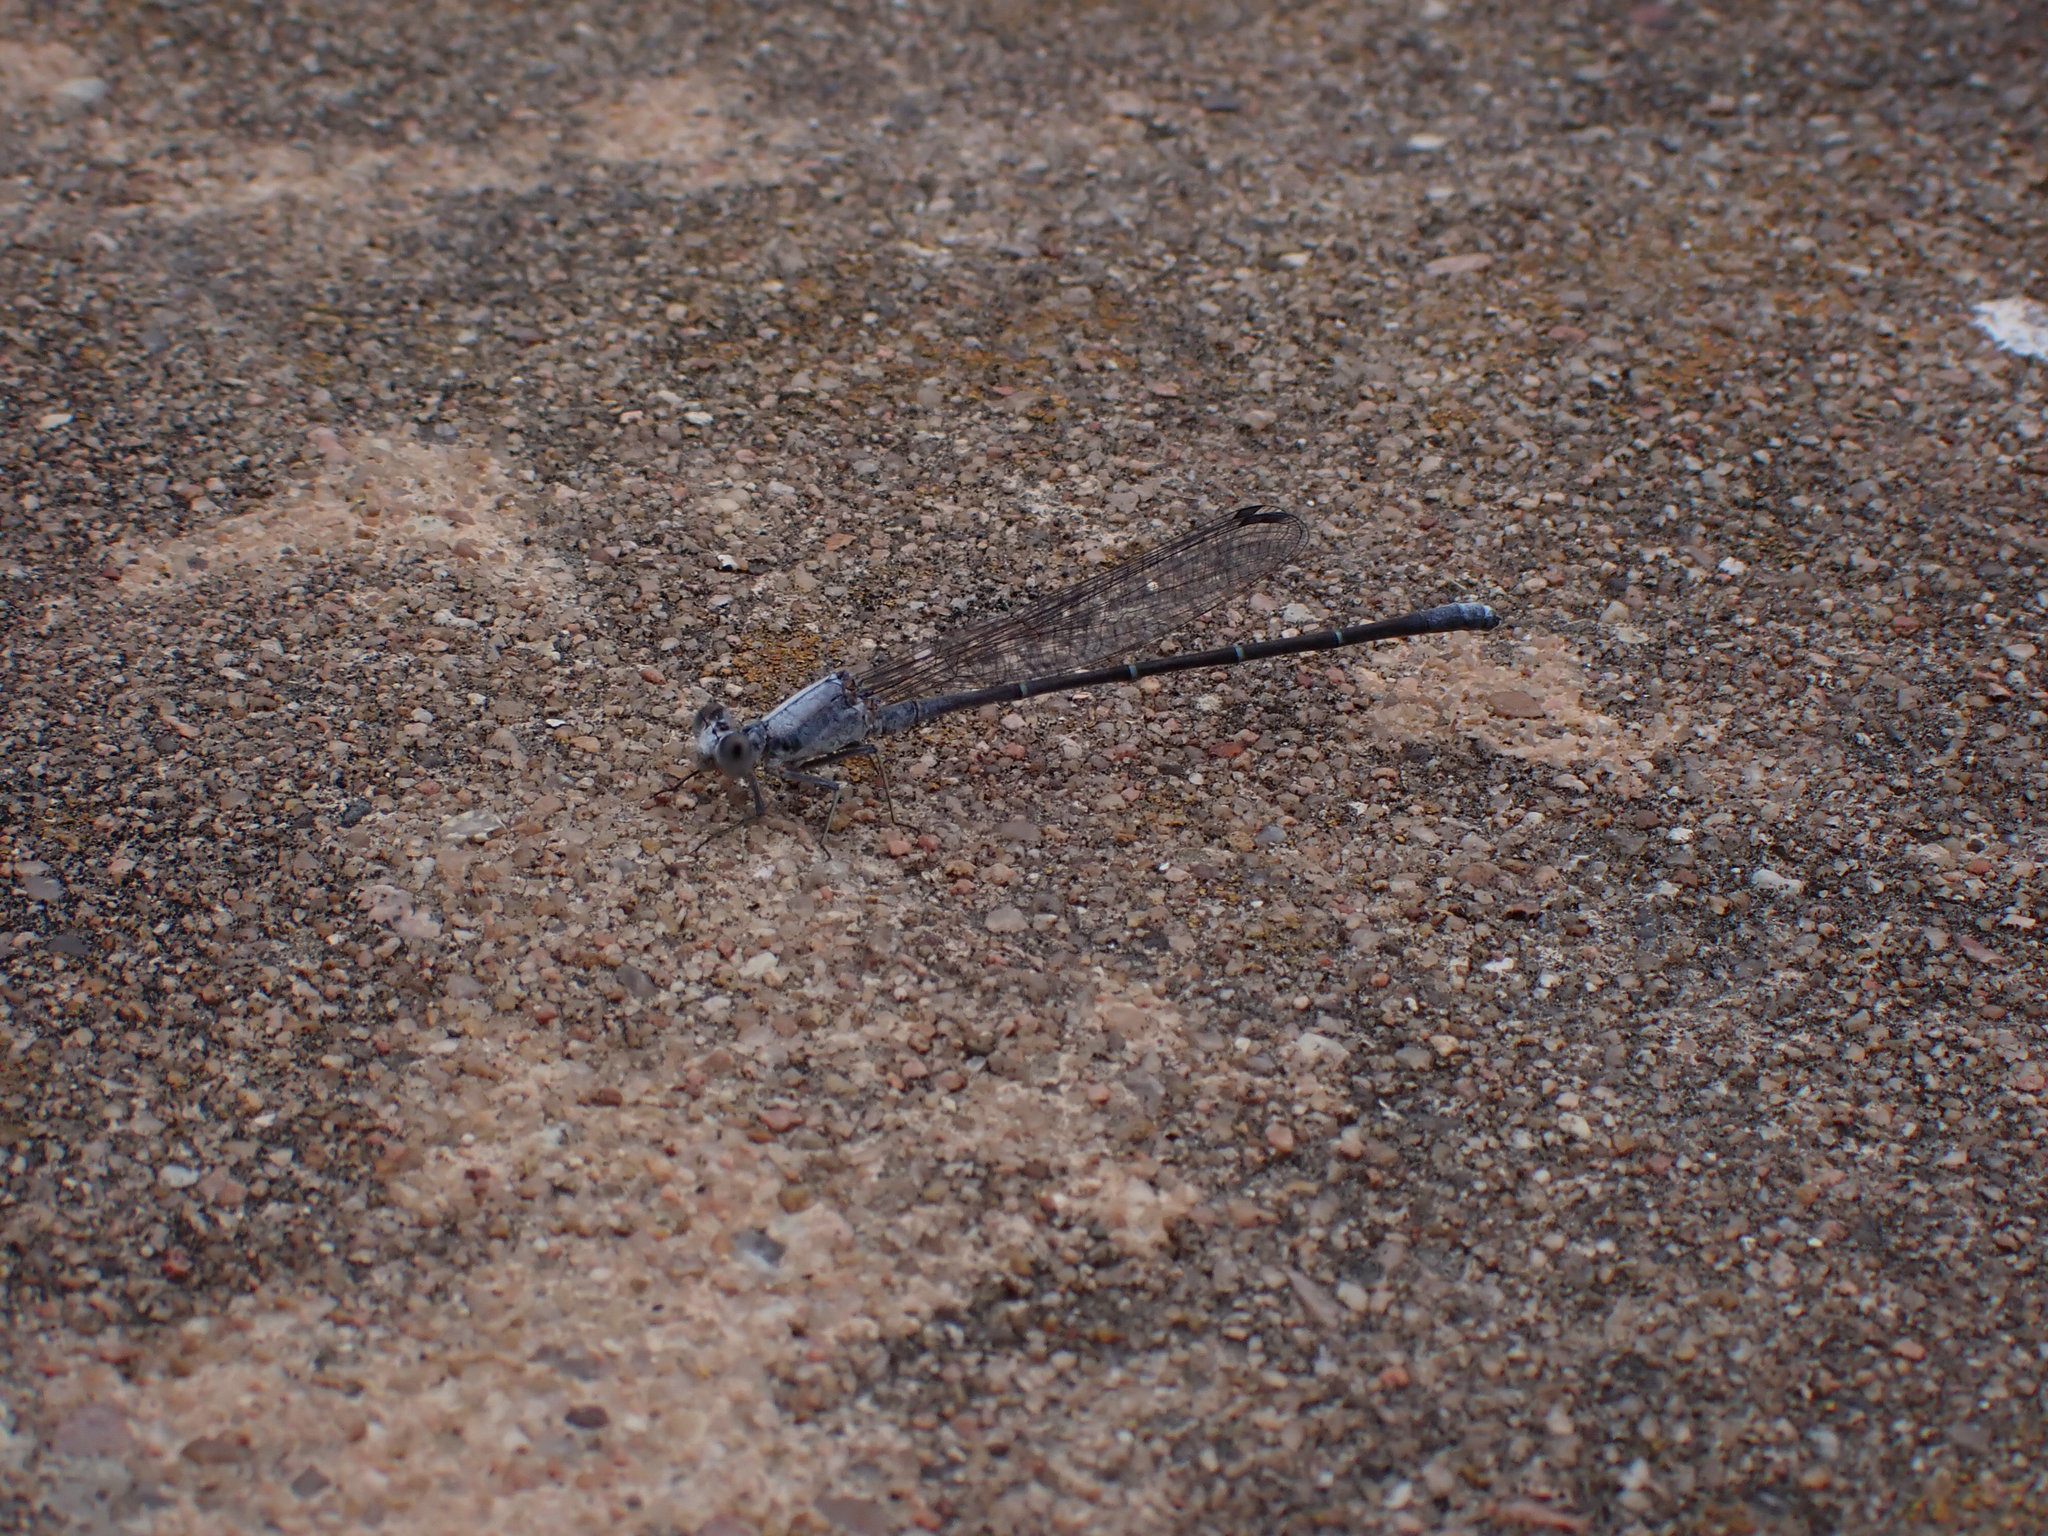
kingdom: Animalia
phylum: Arthropoda
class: Insecta
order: Odonata
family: Coenagrionidae
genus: Argia
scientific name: Argia moesta
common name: Powdered dancer
